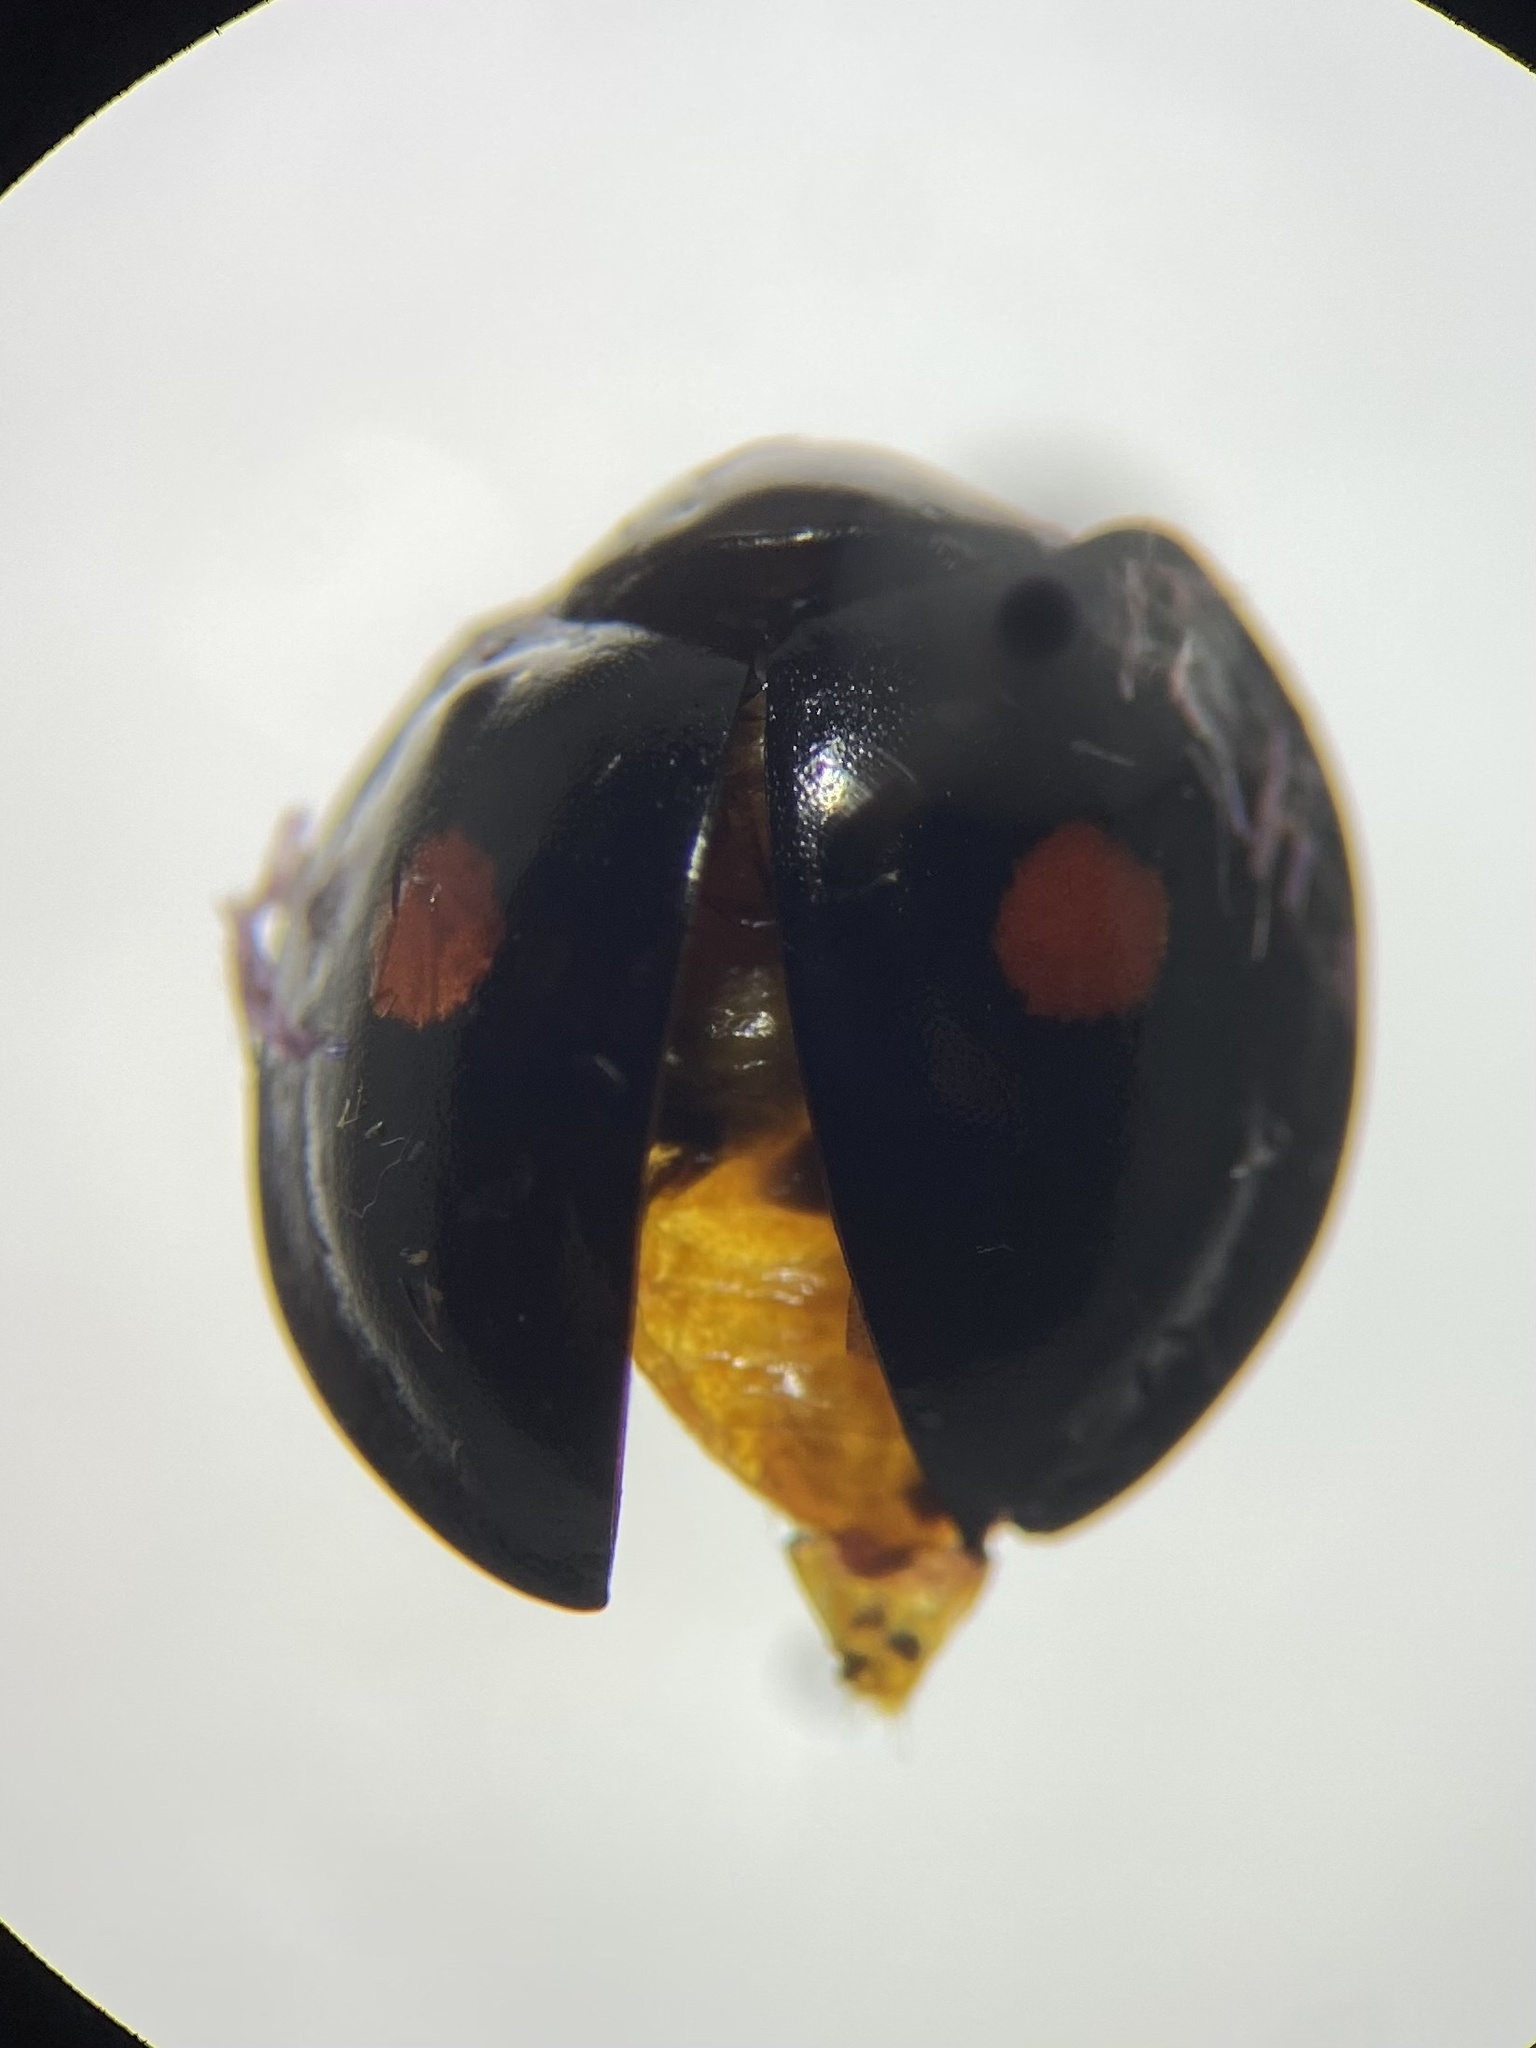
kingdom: Animalia
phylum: Arthropoda
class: Insecta
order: Coleoptera
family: Coccinellidae
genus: Chilocorus
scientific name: Chilocorus stigma
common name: Twicestabbed lady beetle
